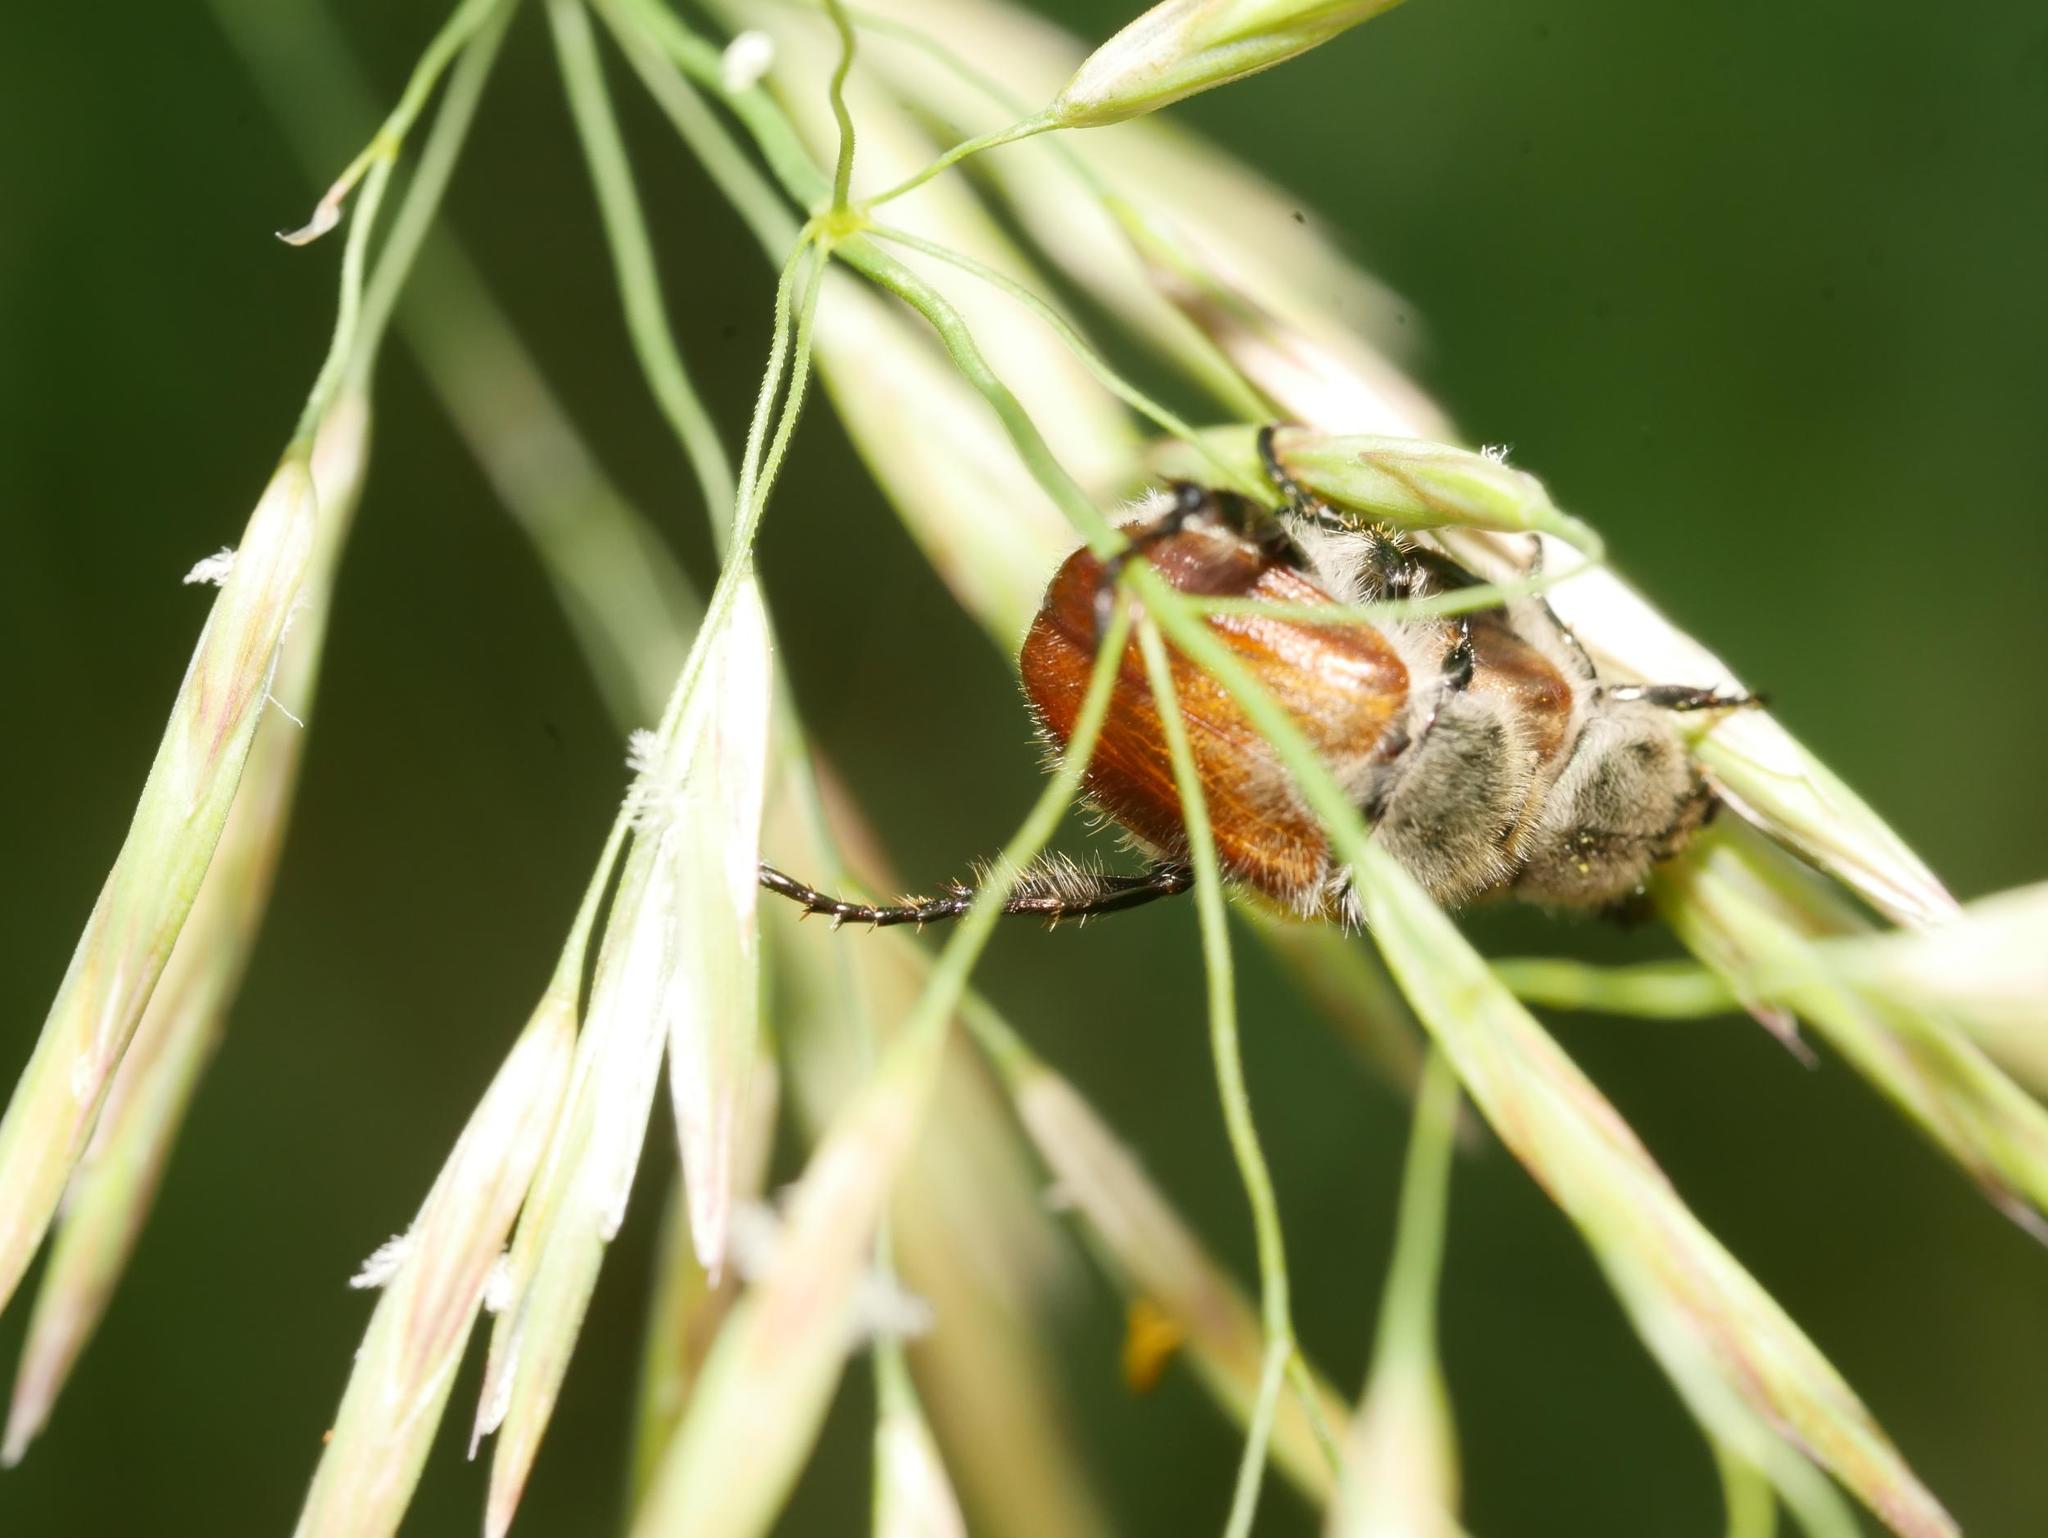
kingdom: Animalia
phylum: Arthropoda
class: Insecta
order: Coleoptera
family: Scarabaeidae
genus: Chaetopteroplia
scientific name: Chaetopteroplia segetum
